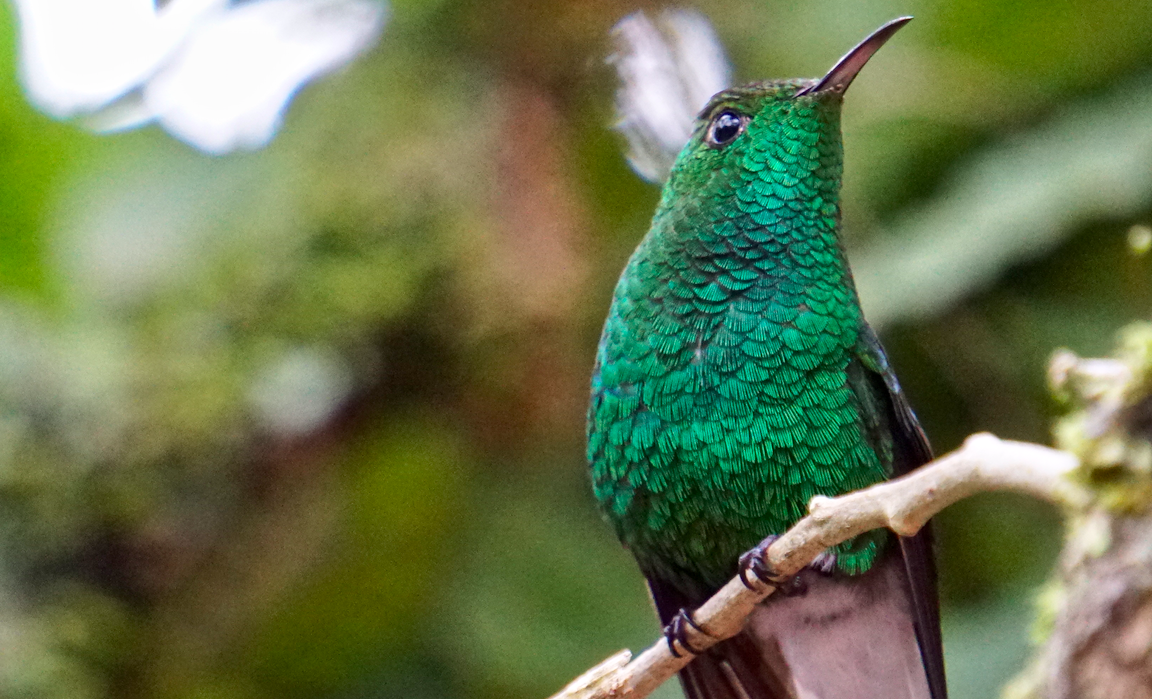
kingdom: Animalia
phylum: Chordata
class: Aves
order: Apodiformes
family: Trochilidae
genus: Microchera
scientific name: Microchera cupreiceps
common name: Coppery-headed emerald
